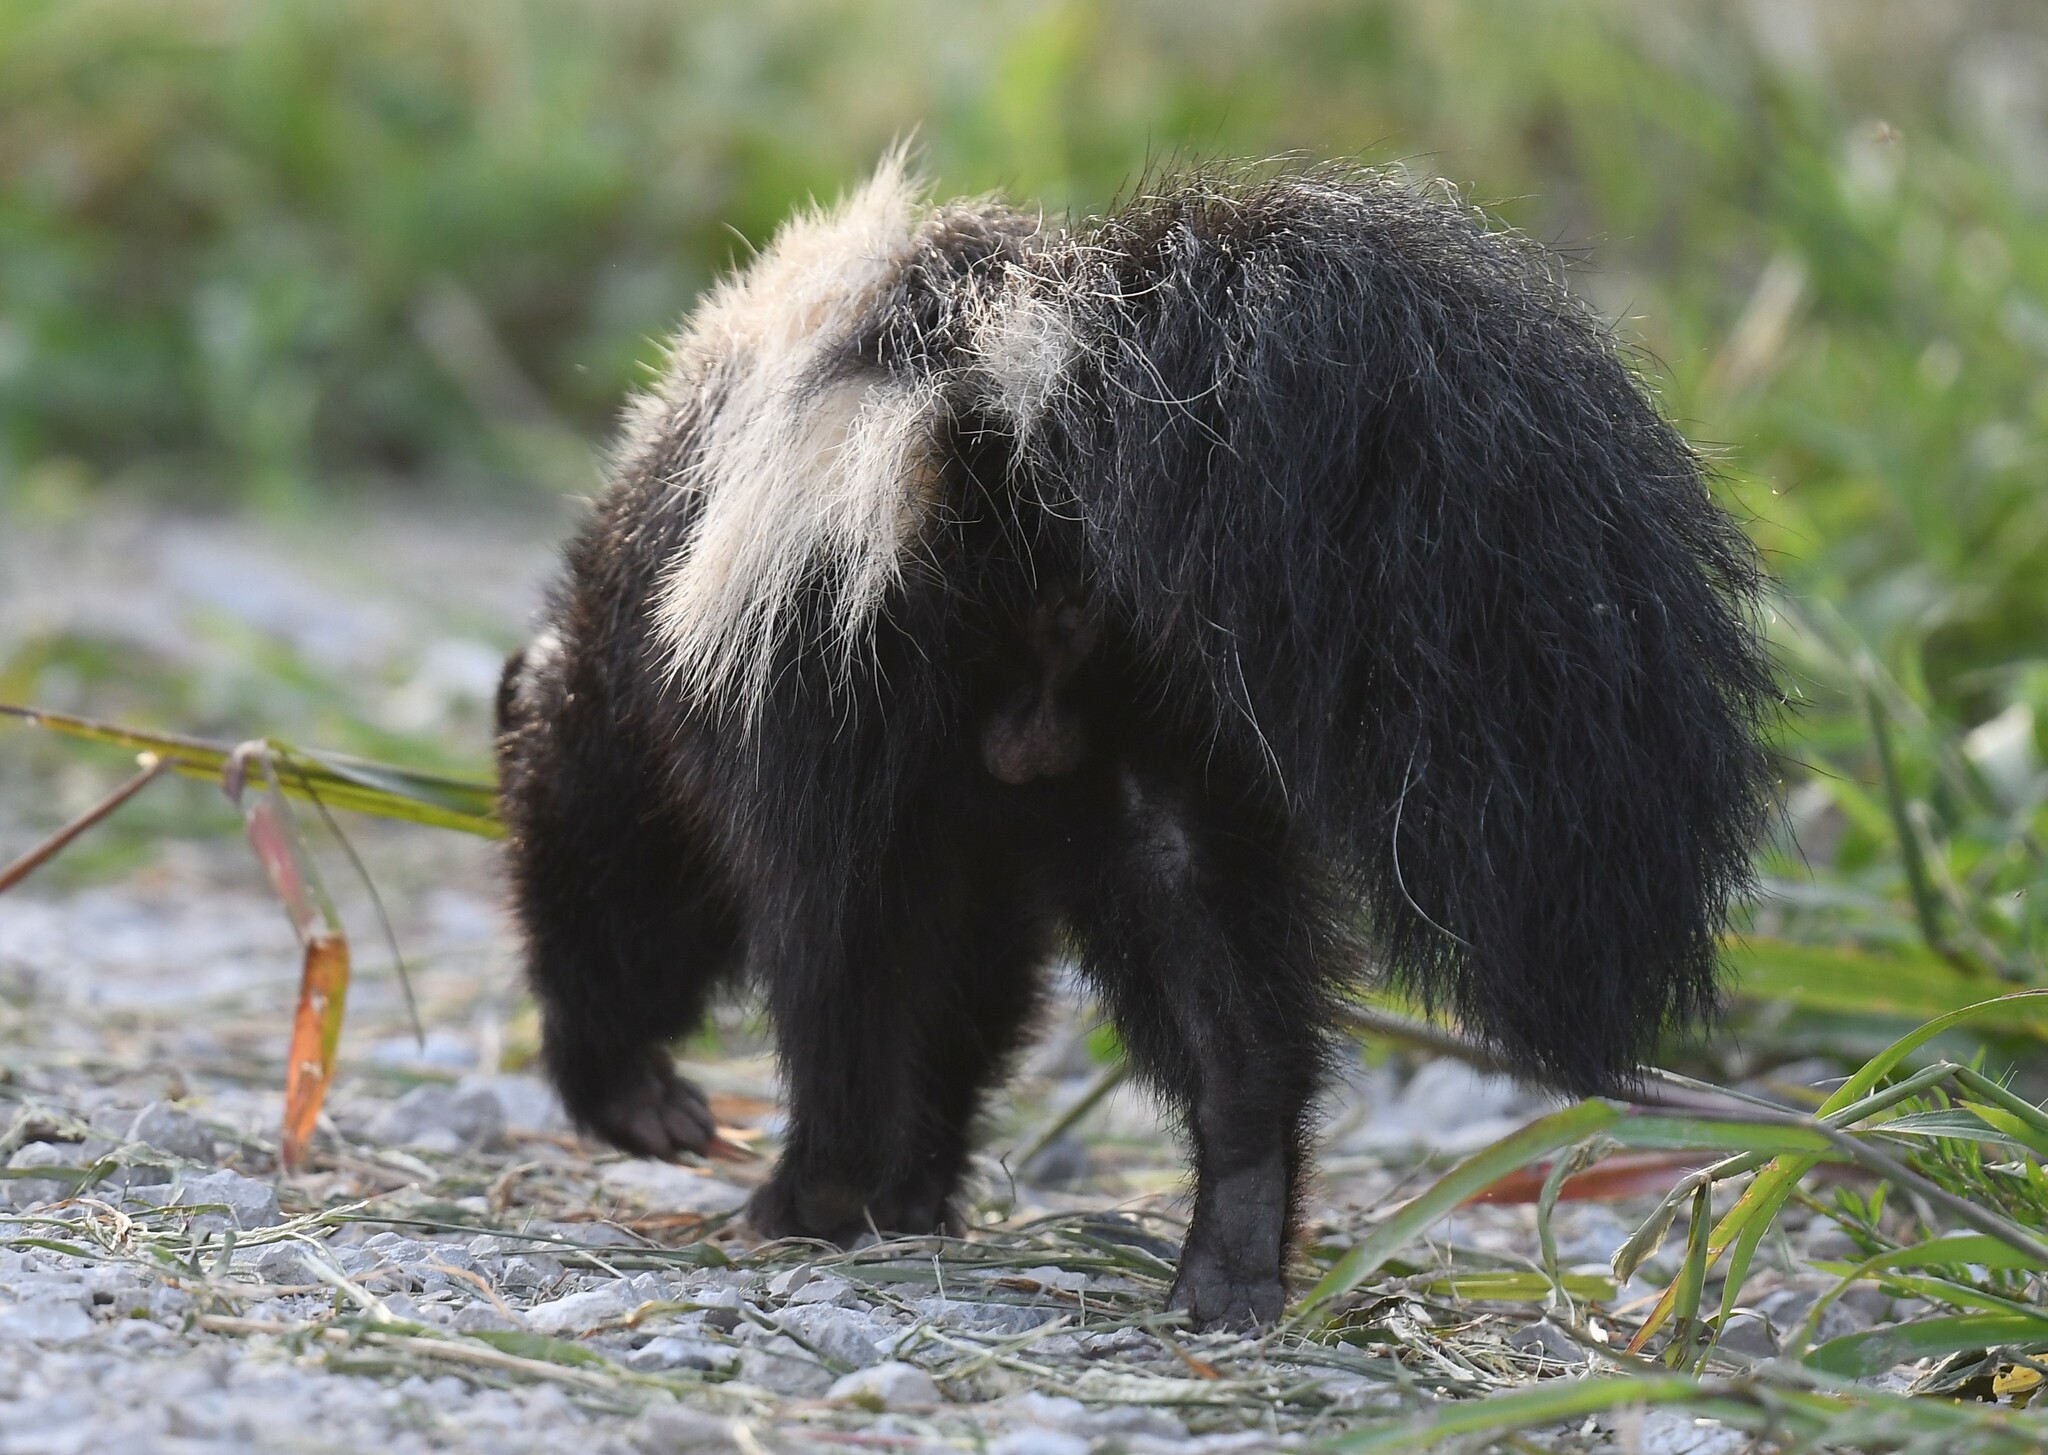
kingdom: Animalia
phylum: Chordata
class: Mammalia
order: Carnivora
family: Mephitidae
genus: Mephitis
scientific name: Mephitis mephitis
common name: Striped skunk
